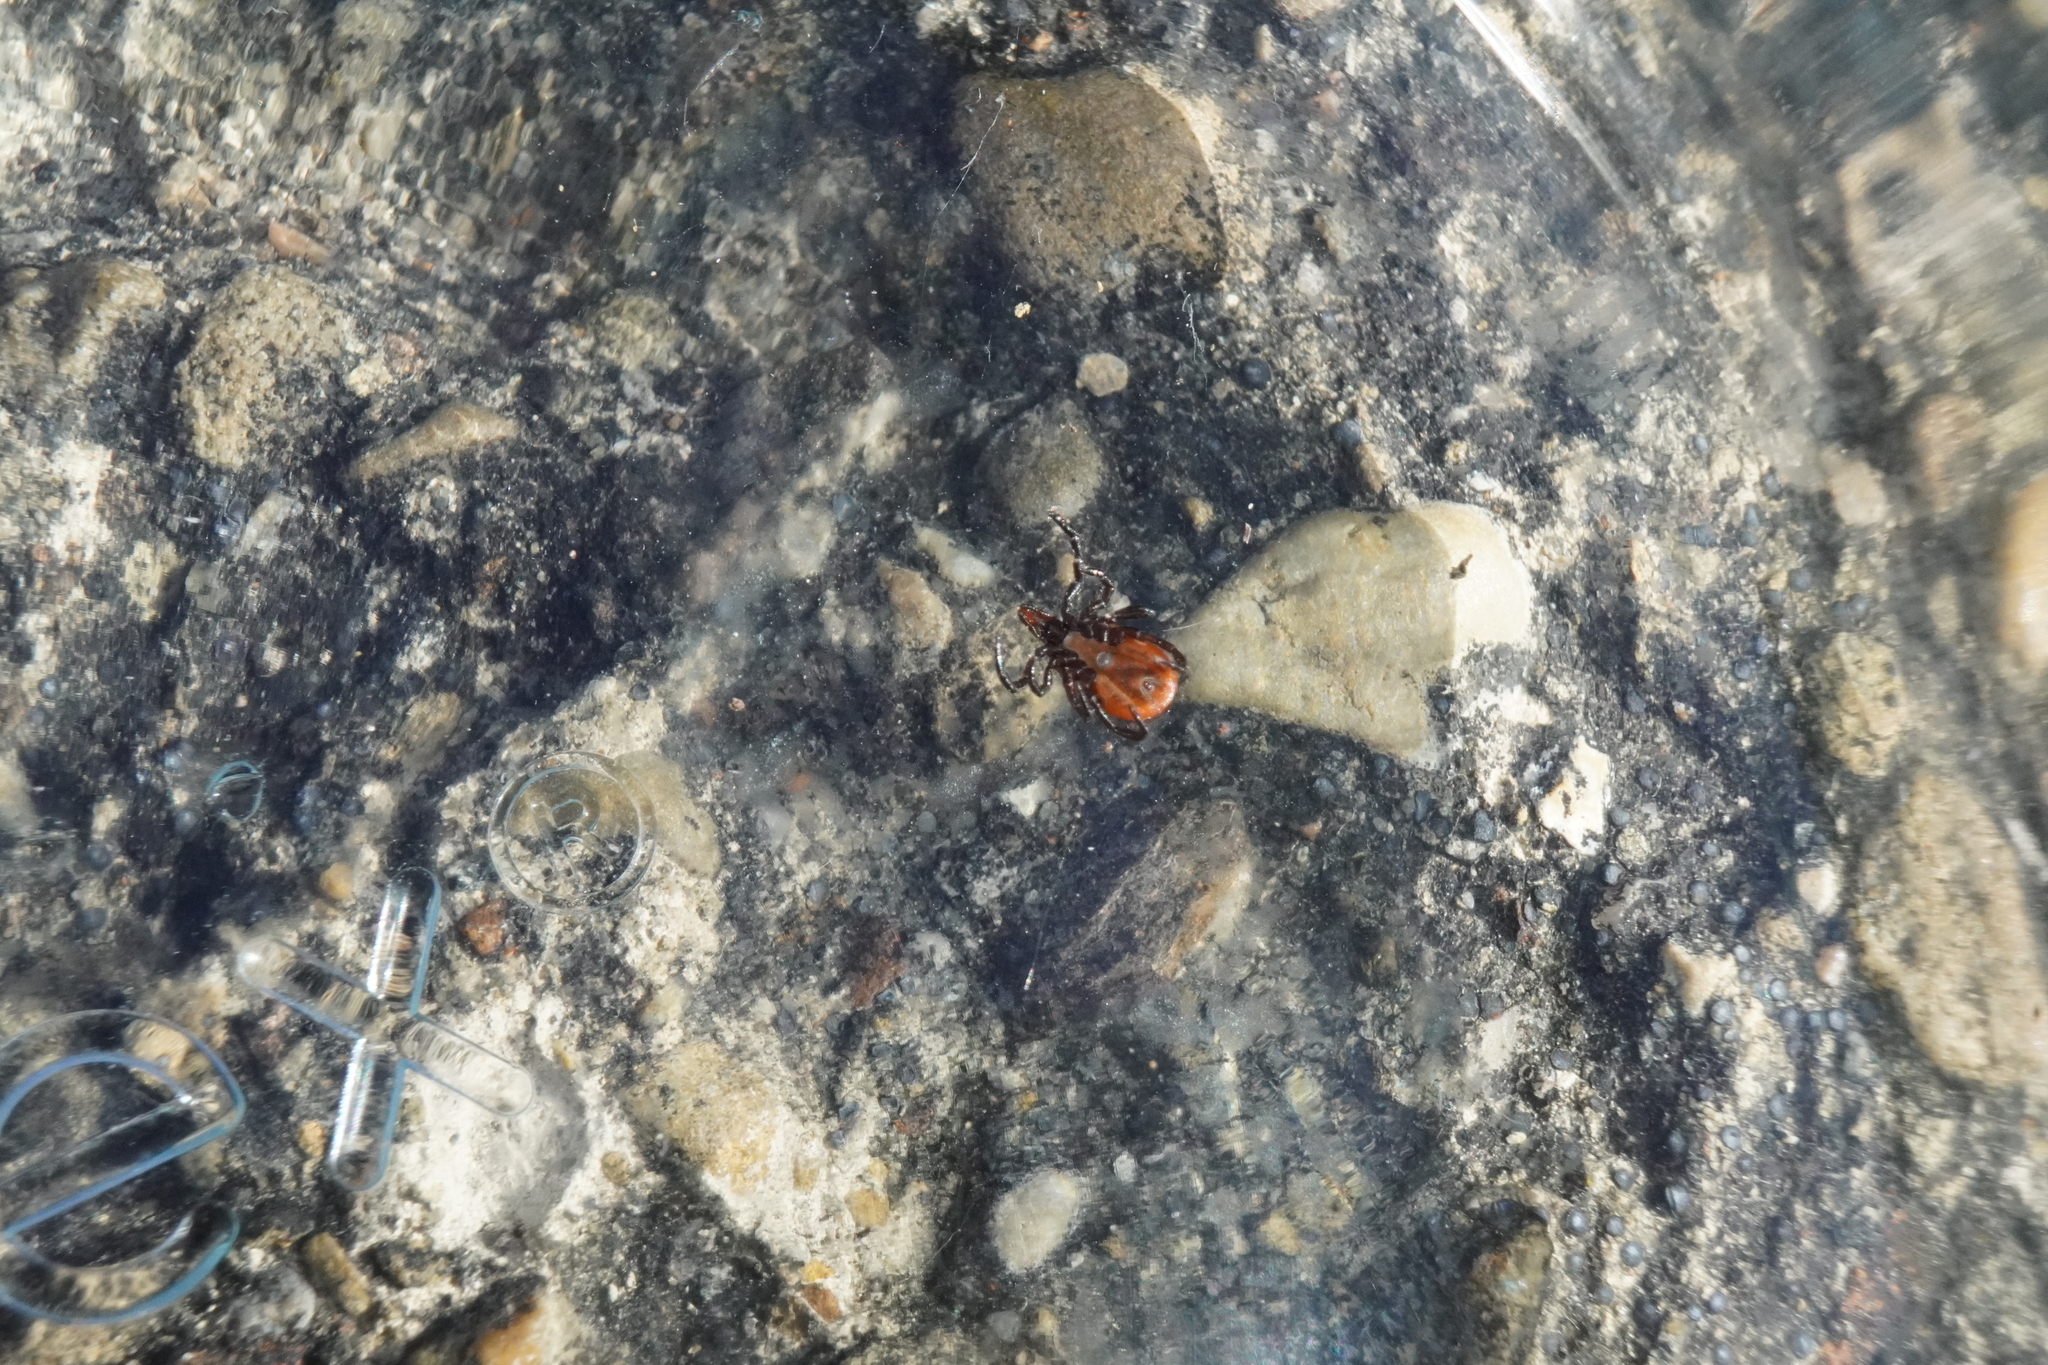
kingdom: Animalia
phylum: Arthropoda
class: Arachnida
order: Ixodida
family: Ixodidae
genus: Ixodes
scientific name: Ixodes scapularis
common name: Black legged tick
